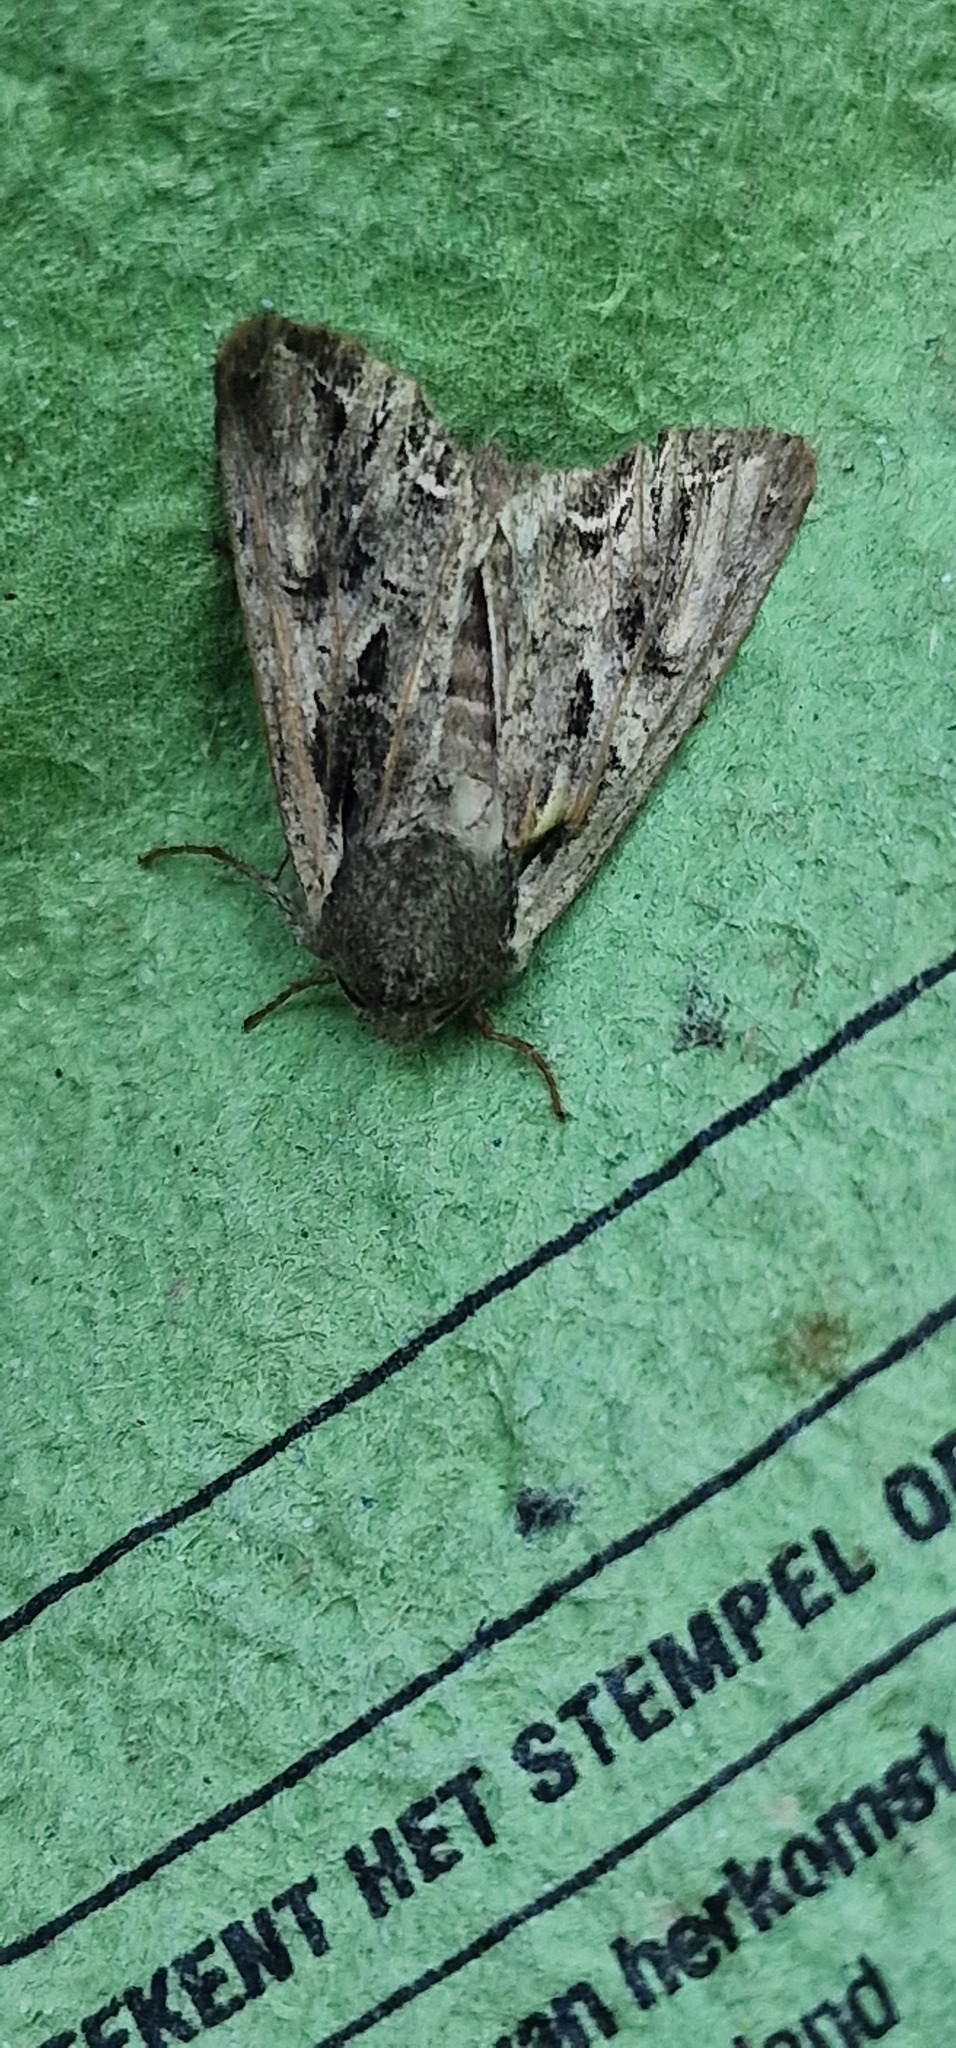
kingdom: Animalia
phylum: Arthropoda
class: Insecta
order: Lepidoptera
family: Noctuidae
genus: Lacanobia
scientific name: Lacanobia suasa
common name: Dog's tooth
